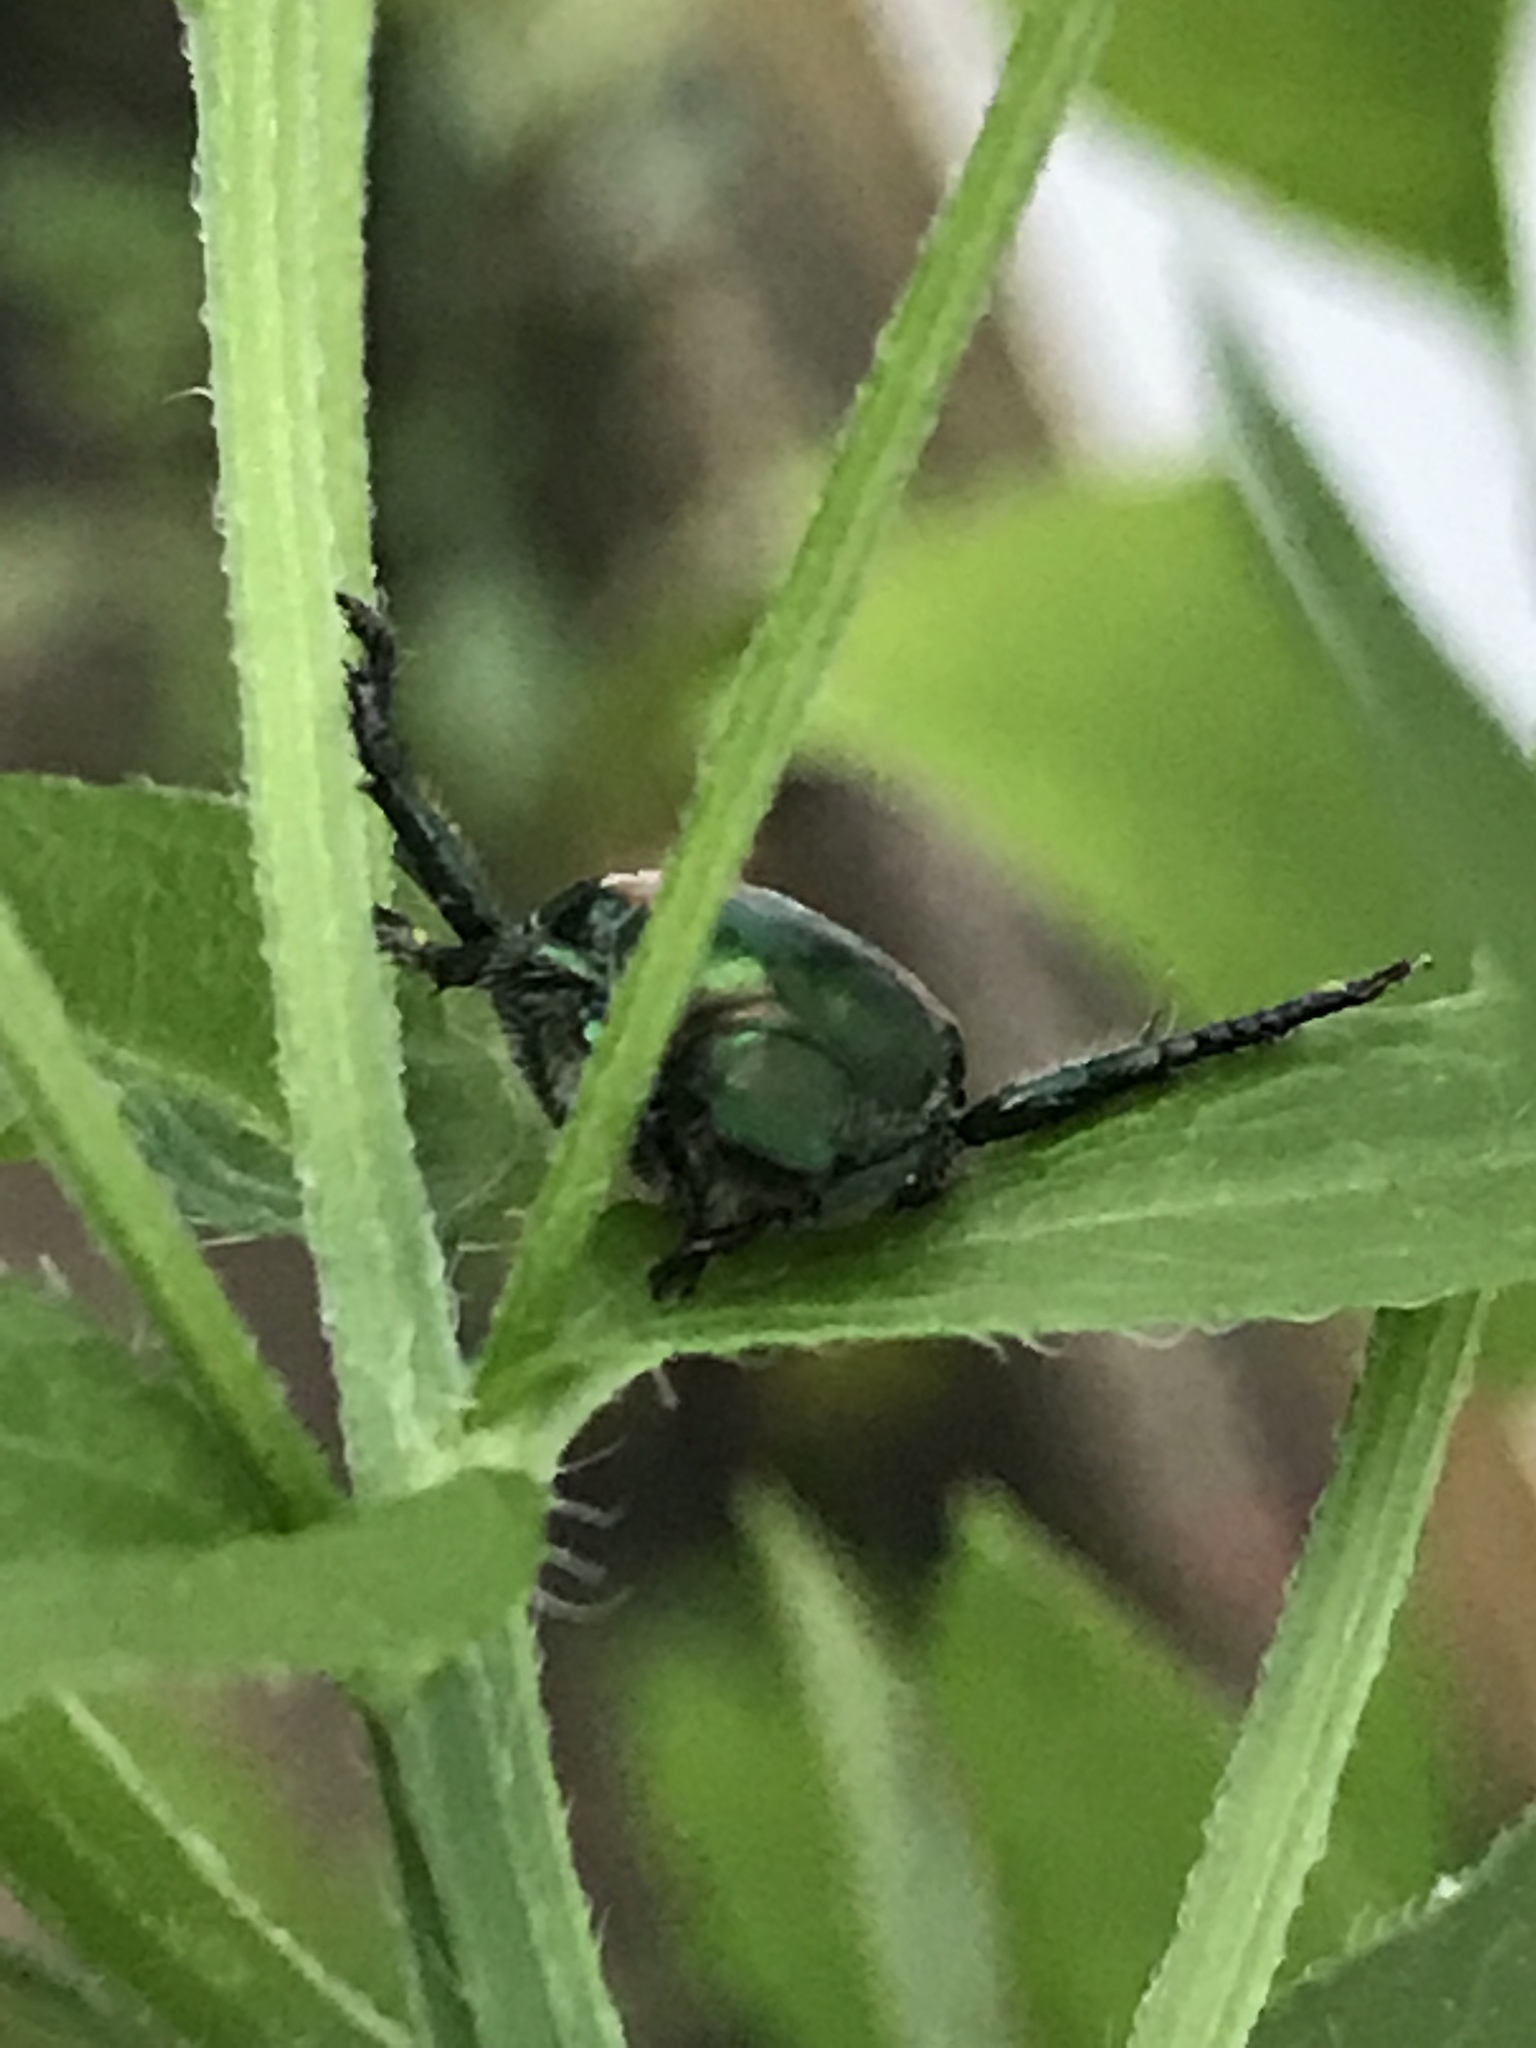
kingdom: Animalia
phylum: Arthropoda
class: Insecta
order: Coleoptera
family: Scarabaeidae
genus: Popillia
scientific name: Popillia japonica
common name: Japanese beetle
